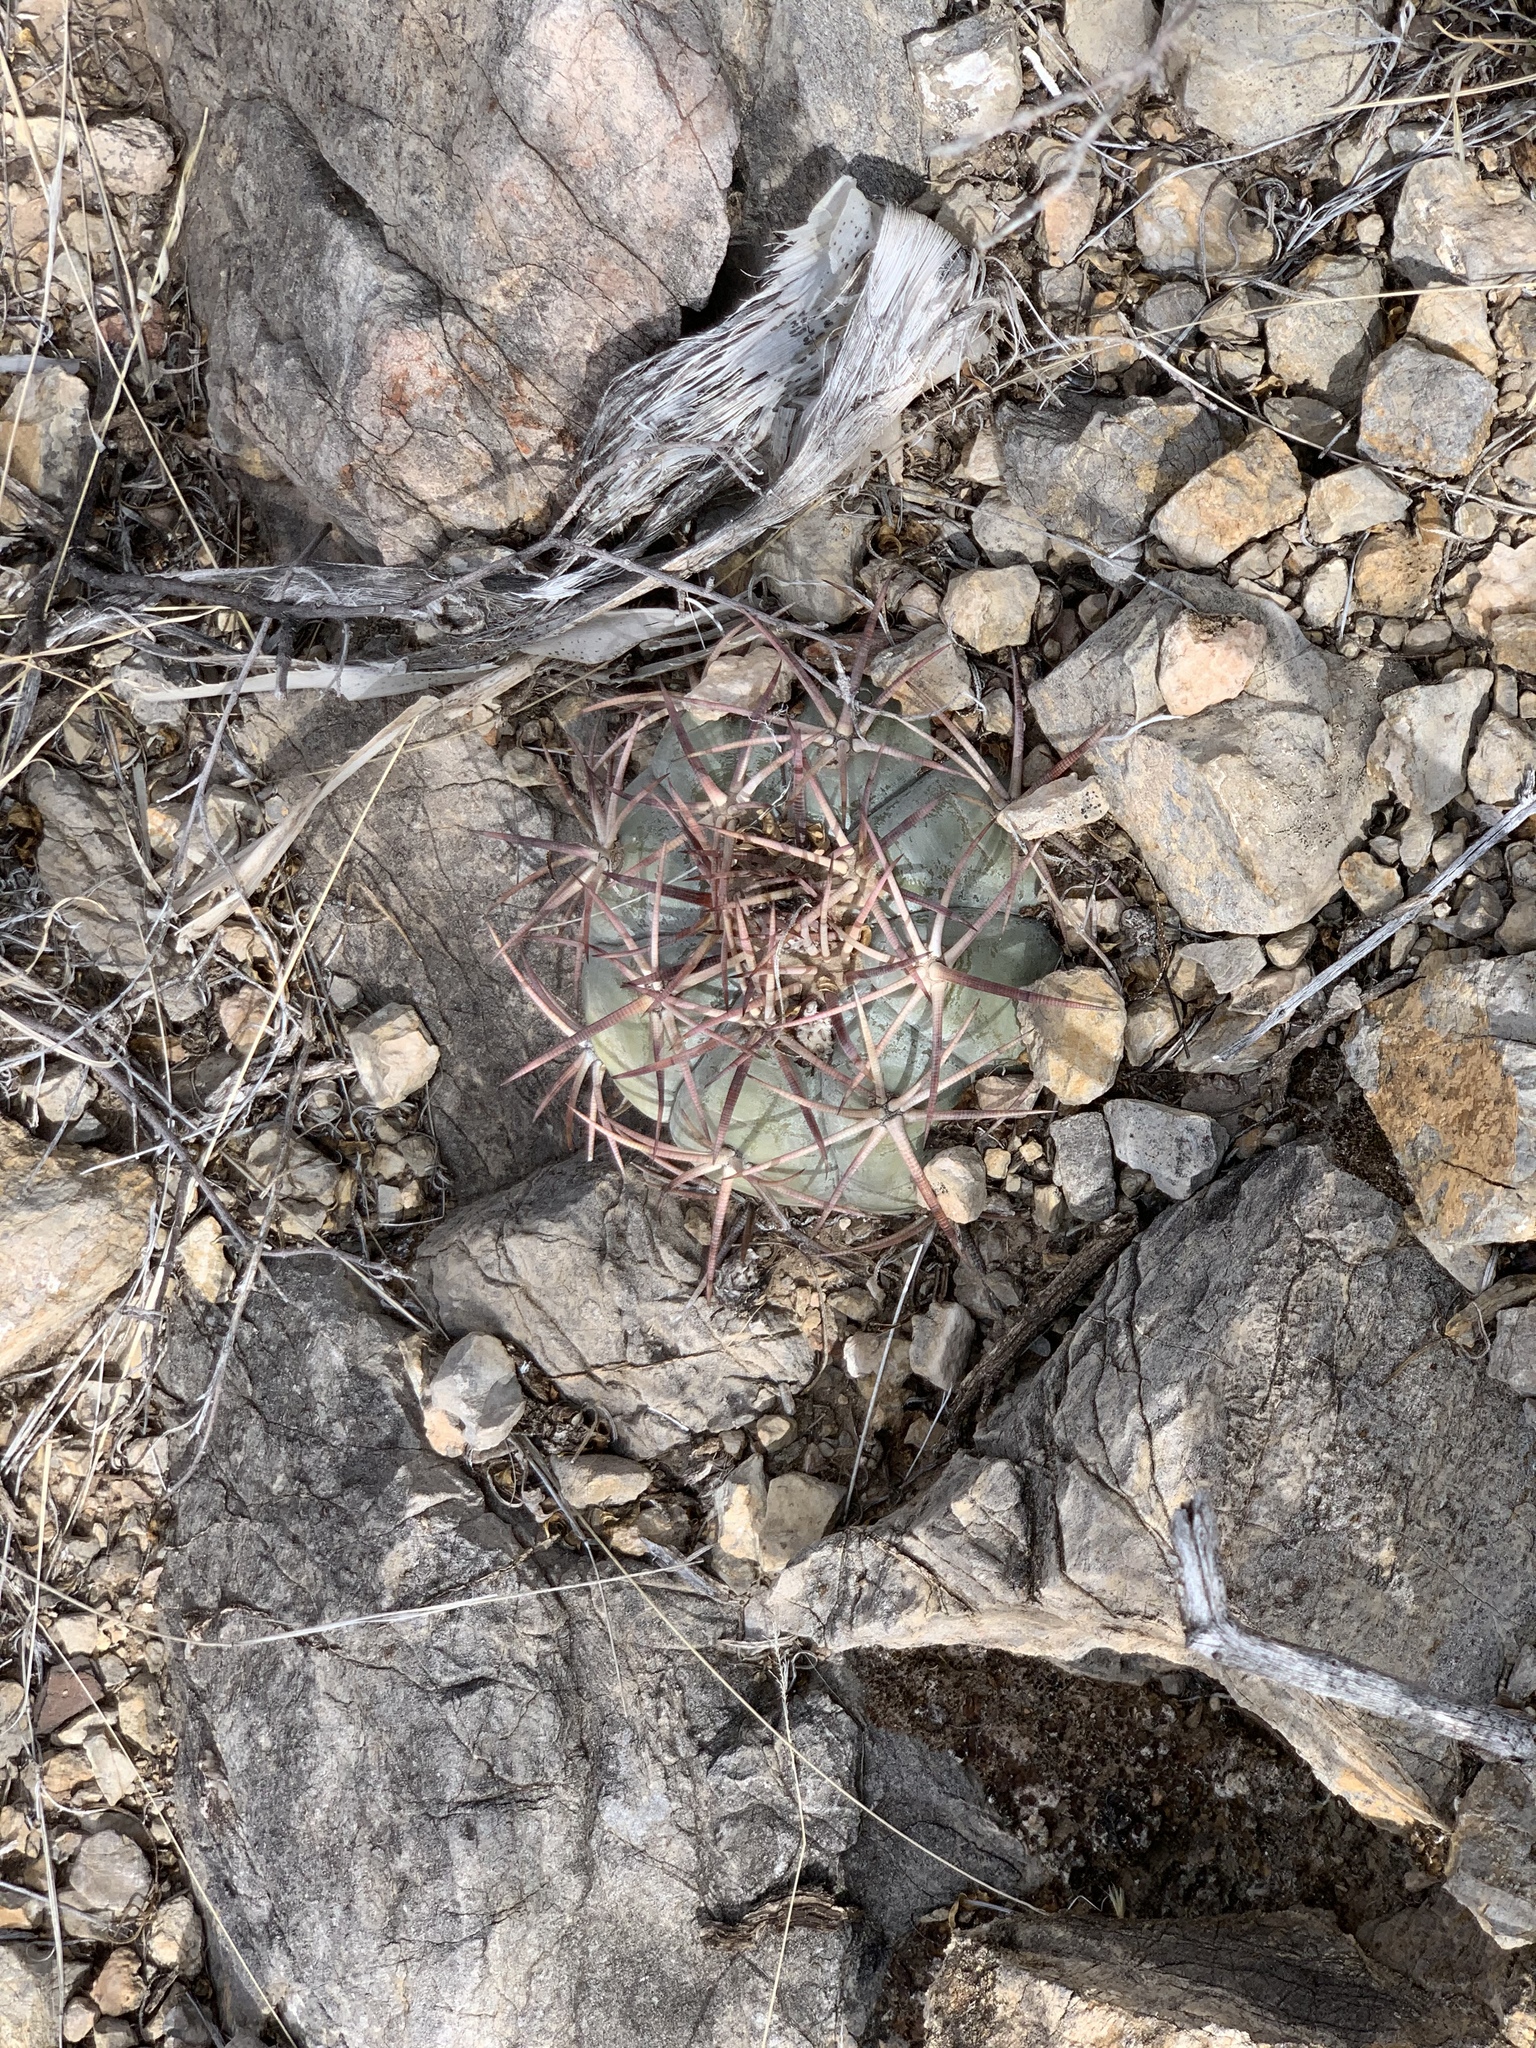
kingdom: Plantae
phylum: Tracheophyta
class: Magnoliopsida
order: Caryophyllales
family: Cactaceae
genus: Echinocactus
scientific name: Echinocactus horizonthalonius
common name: Devilshead
